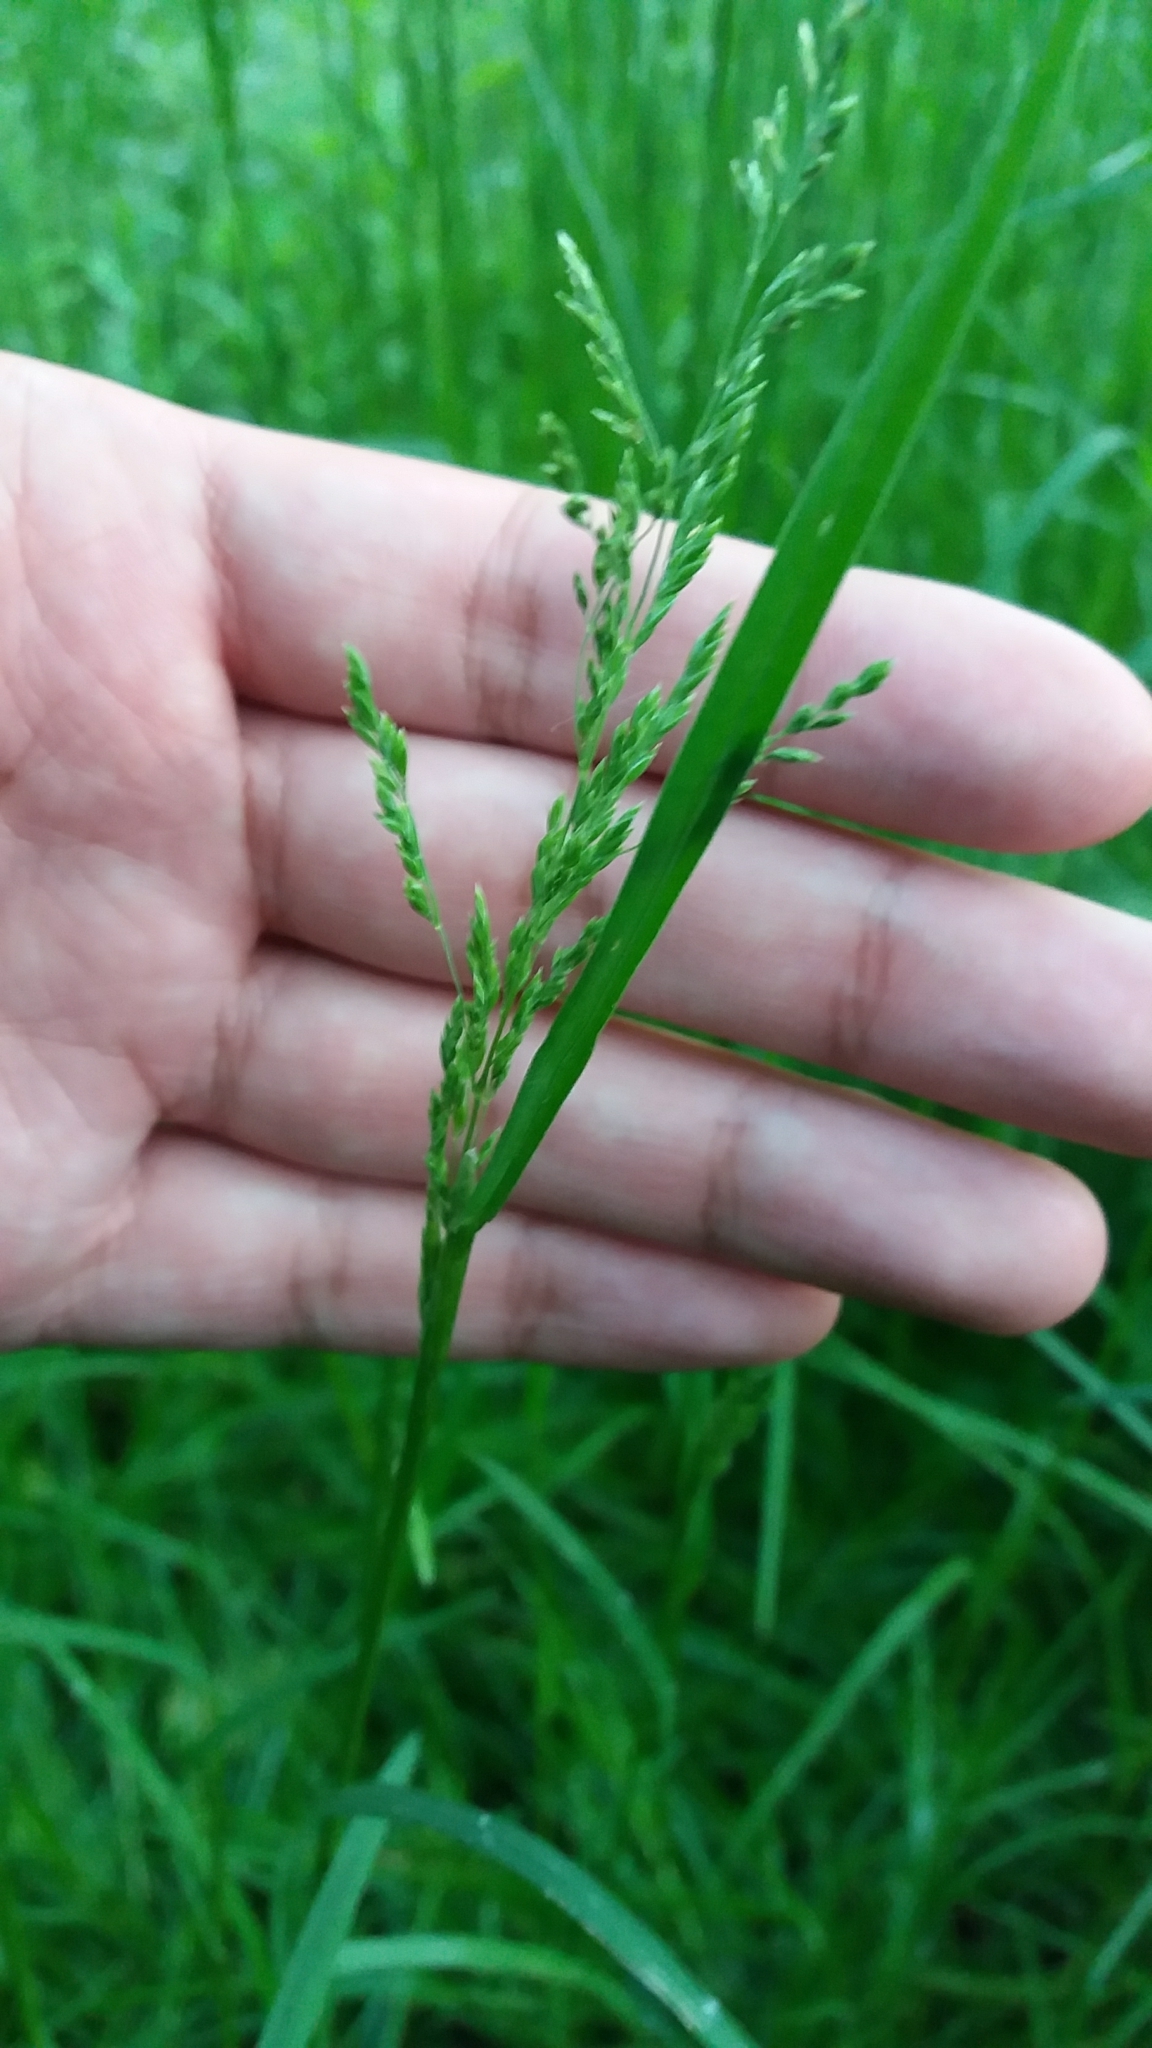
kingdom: Plantae
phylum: Tracheophyta
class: Liliopsida
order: Poales
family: Poaceae
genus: Poa
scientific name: Poa trivialis
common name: Rough bluegrass
